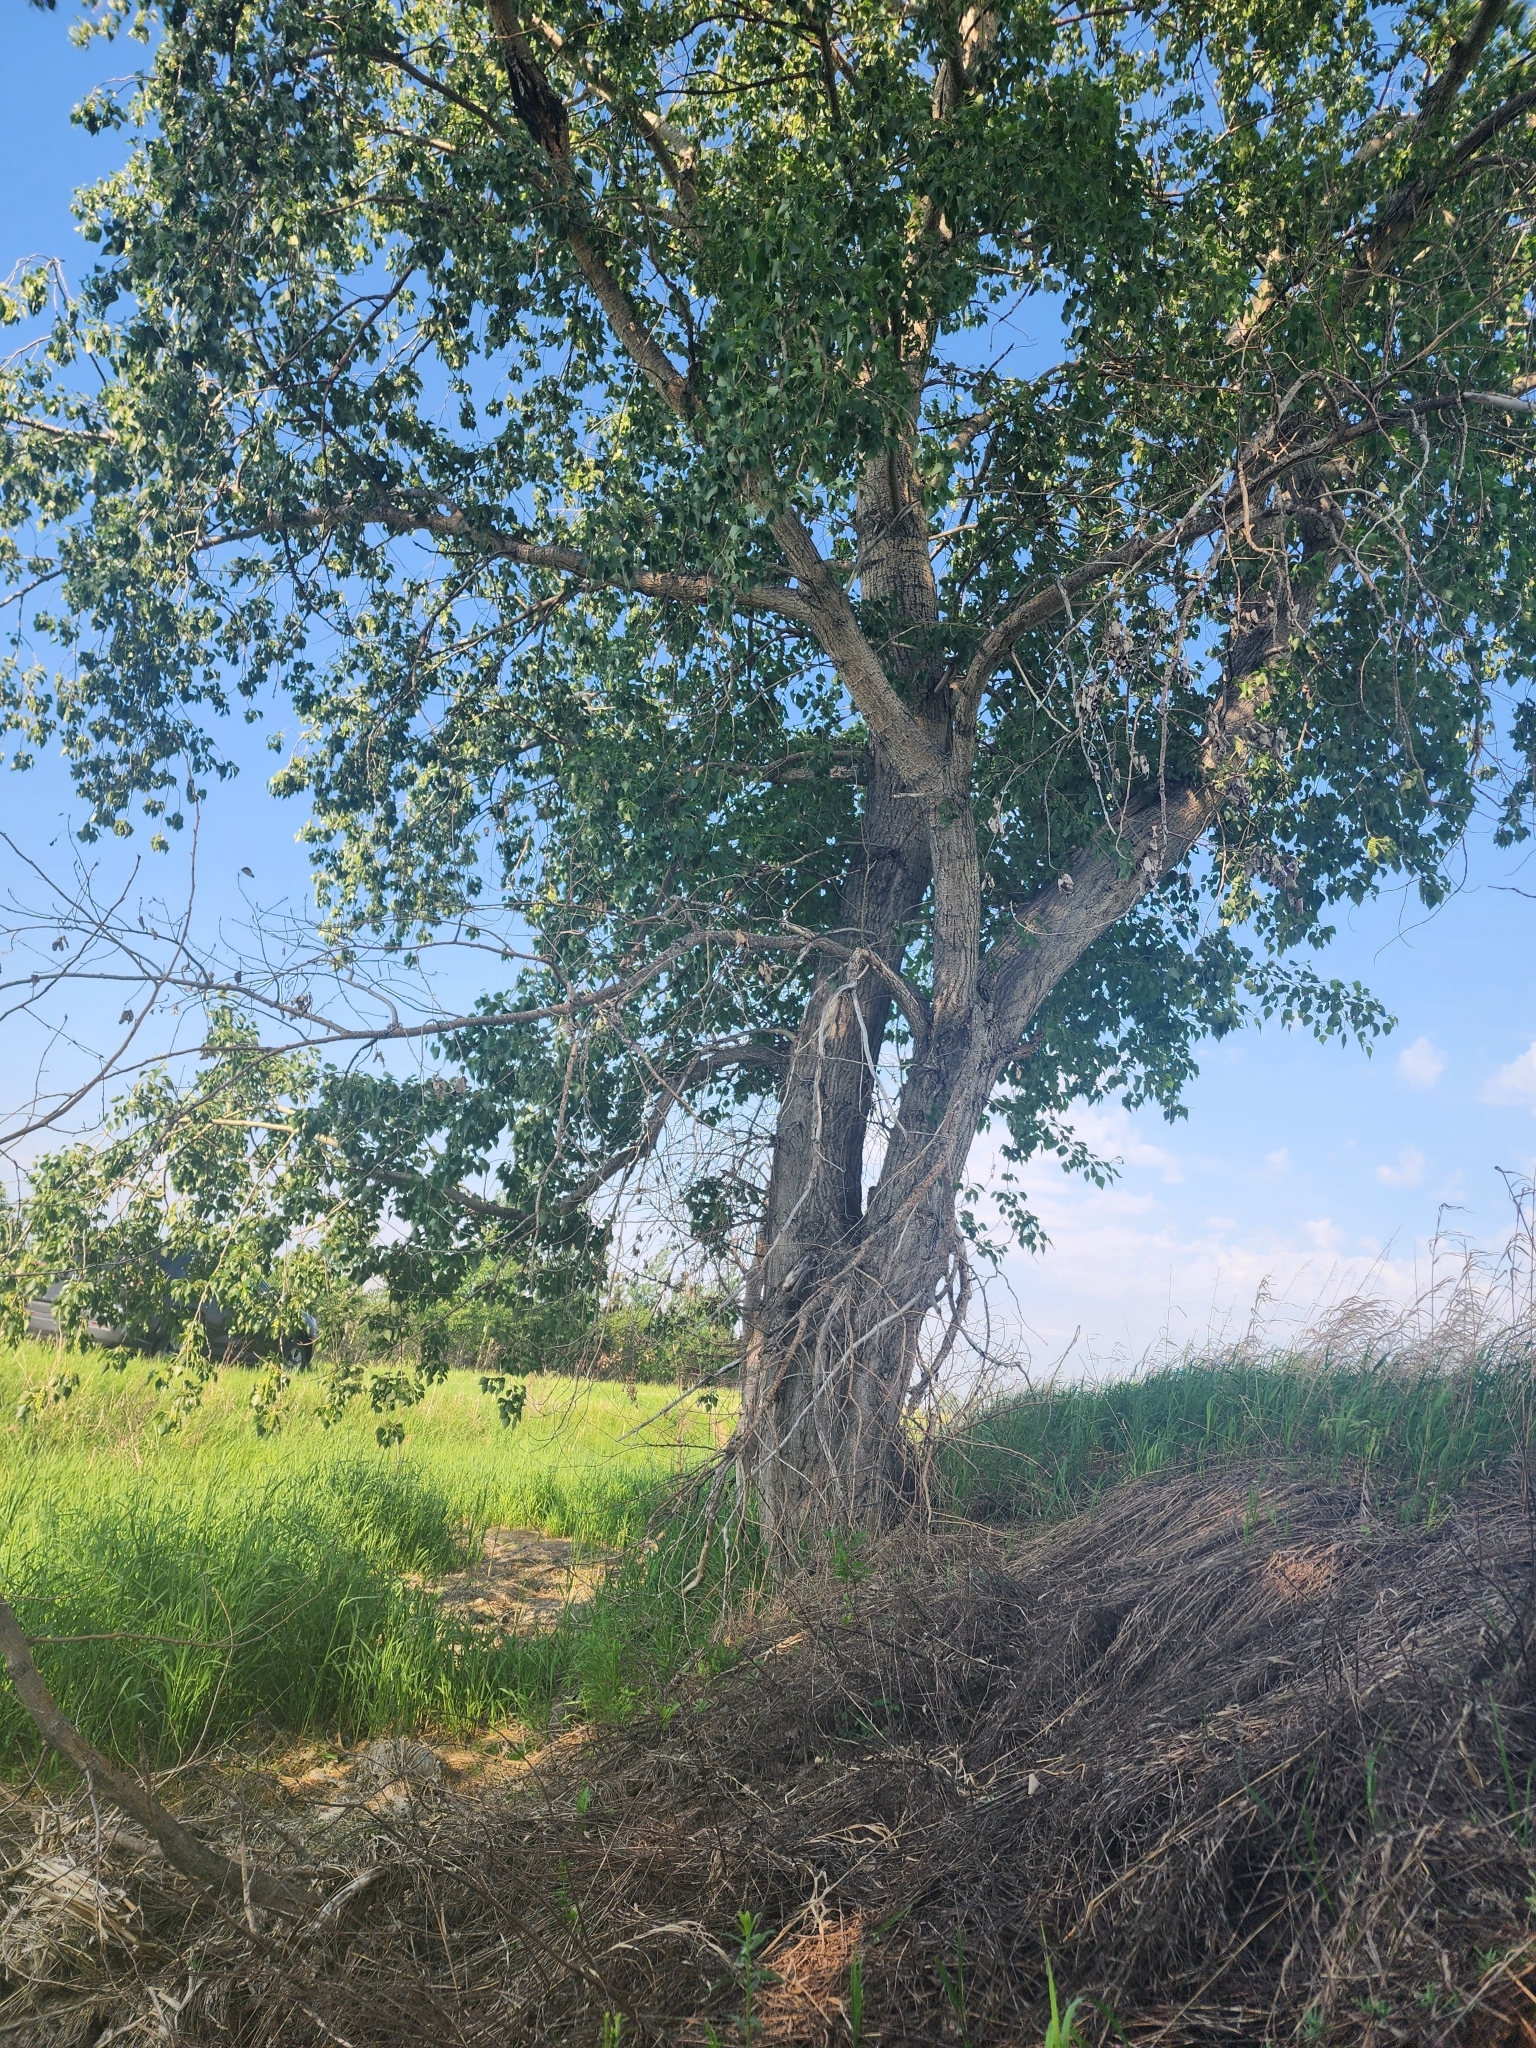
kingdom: Plantae
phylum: Tracheophyta
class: Magnoliopsida
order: Malpighiales
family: Salicaceae
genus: Populus
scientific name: Populus deltoides
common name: Eastern cottonwood
